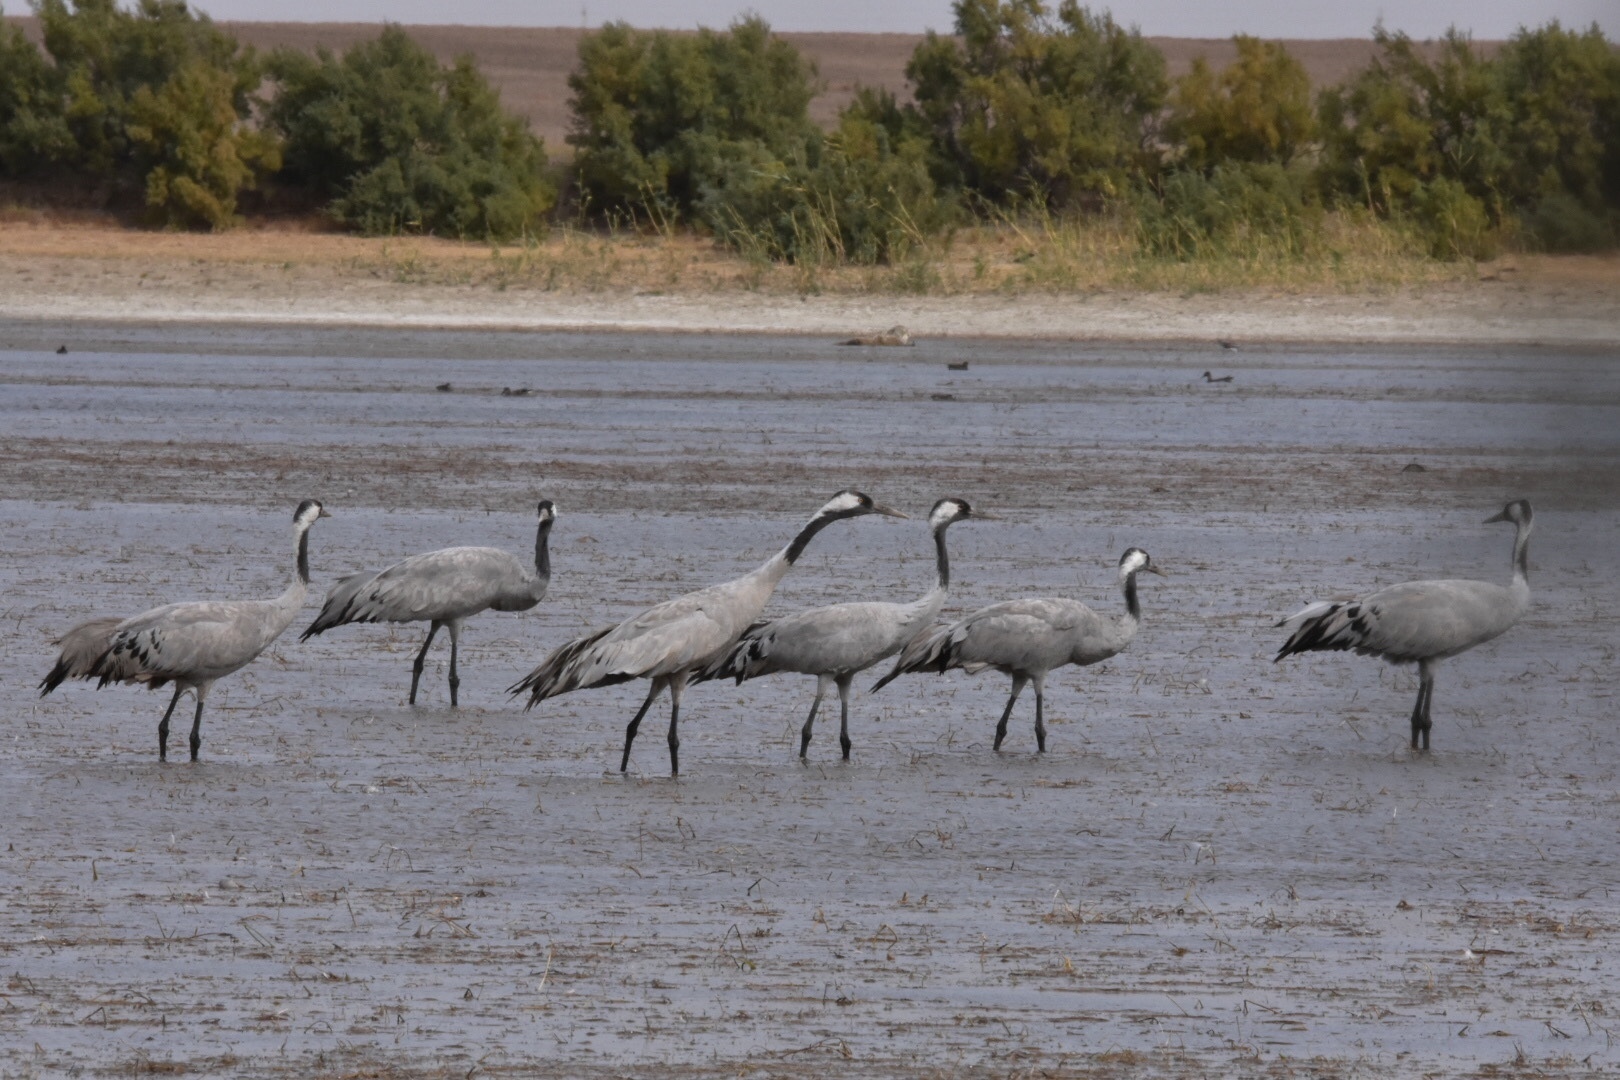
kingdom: Animalia
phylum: Chordata
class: Aves
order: Gruiformes
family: Gruidae
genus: Grus
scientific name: Grus grus
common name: Common crane
